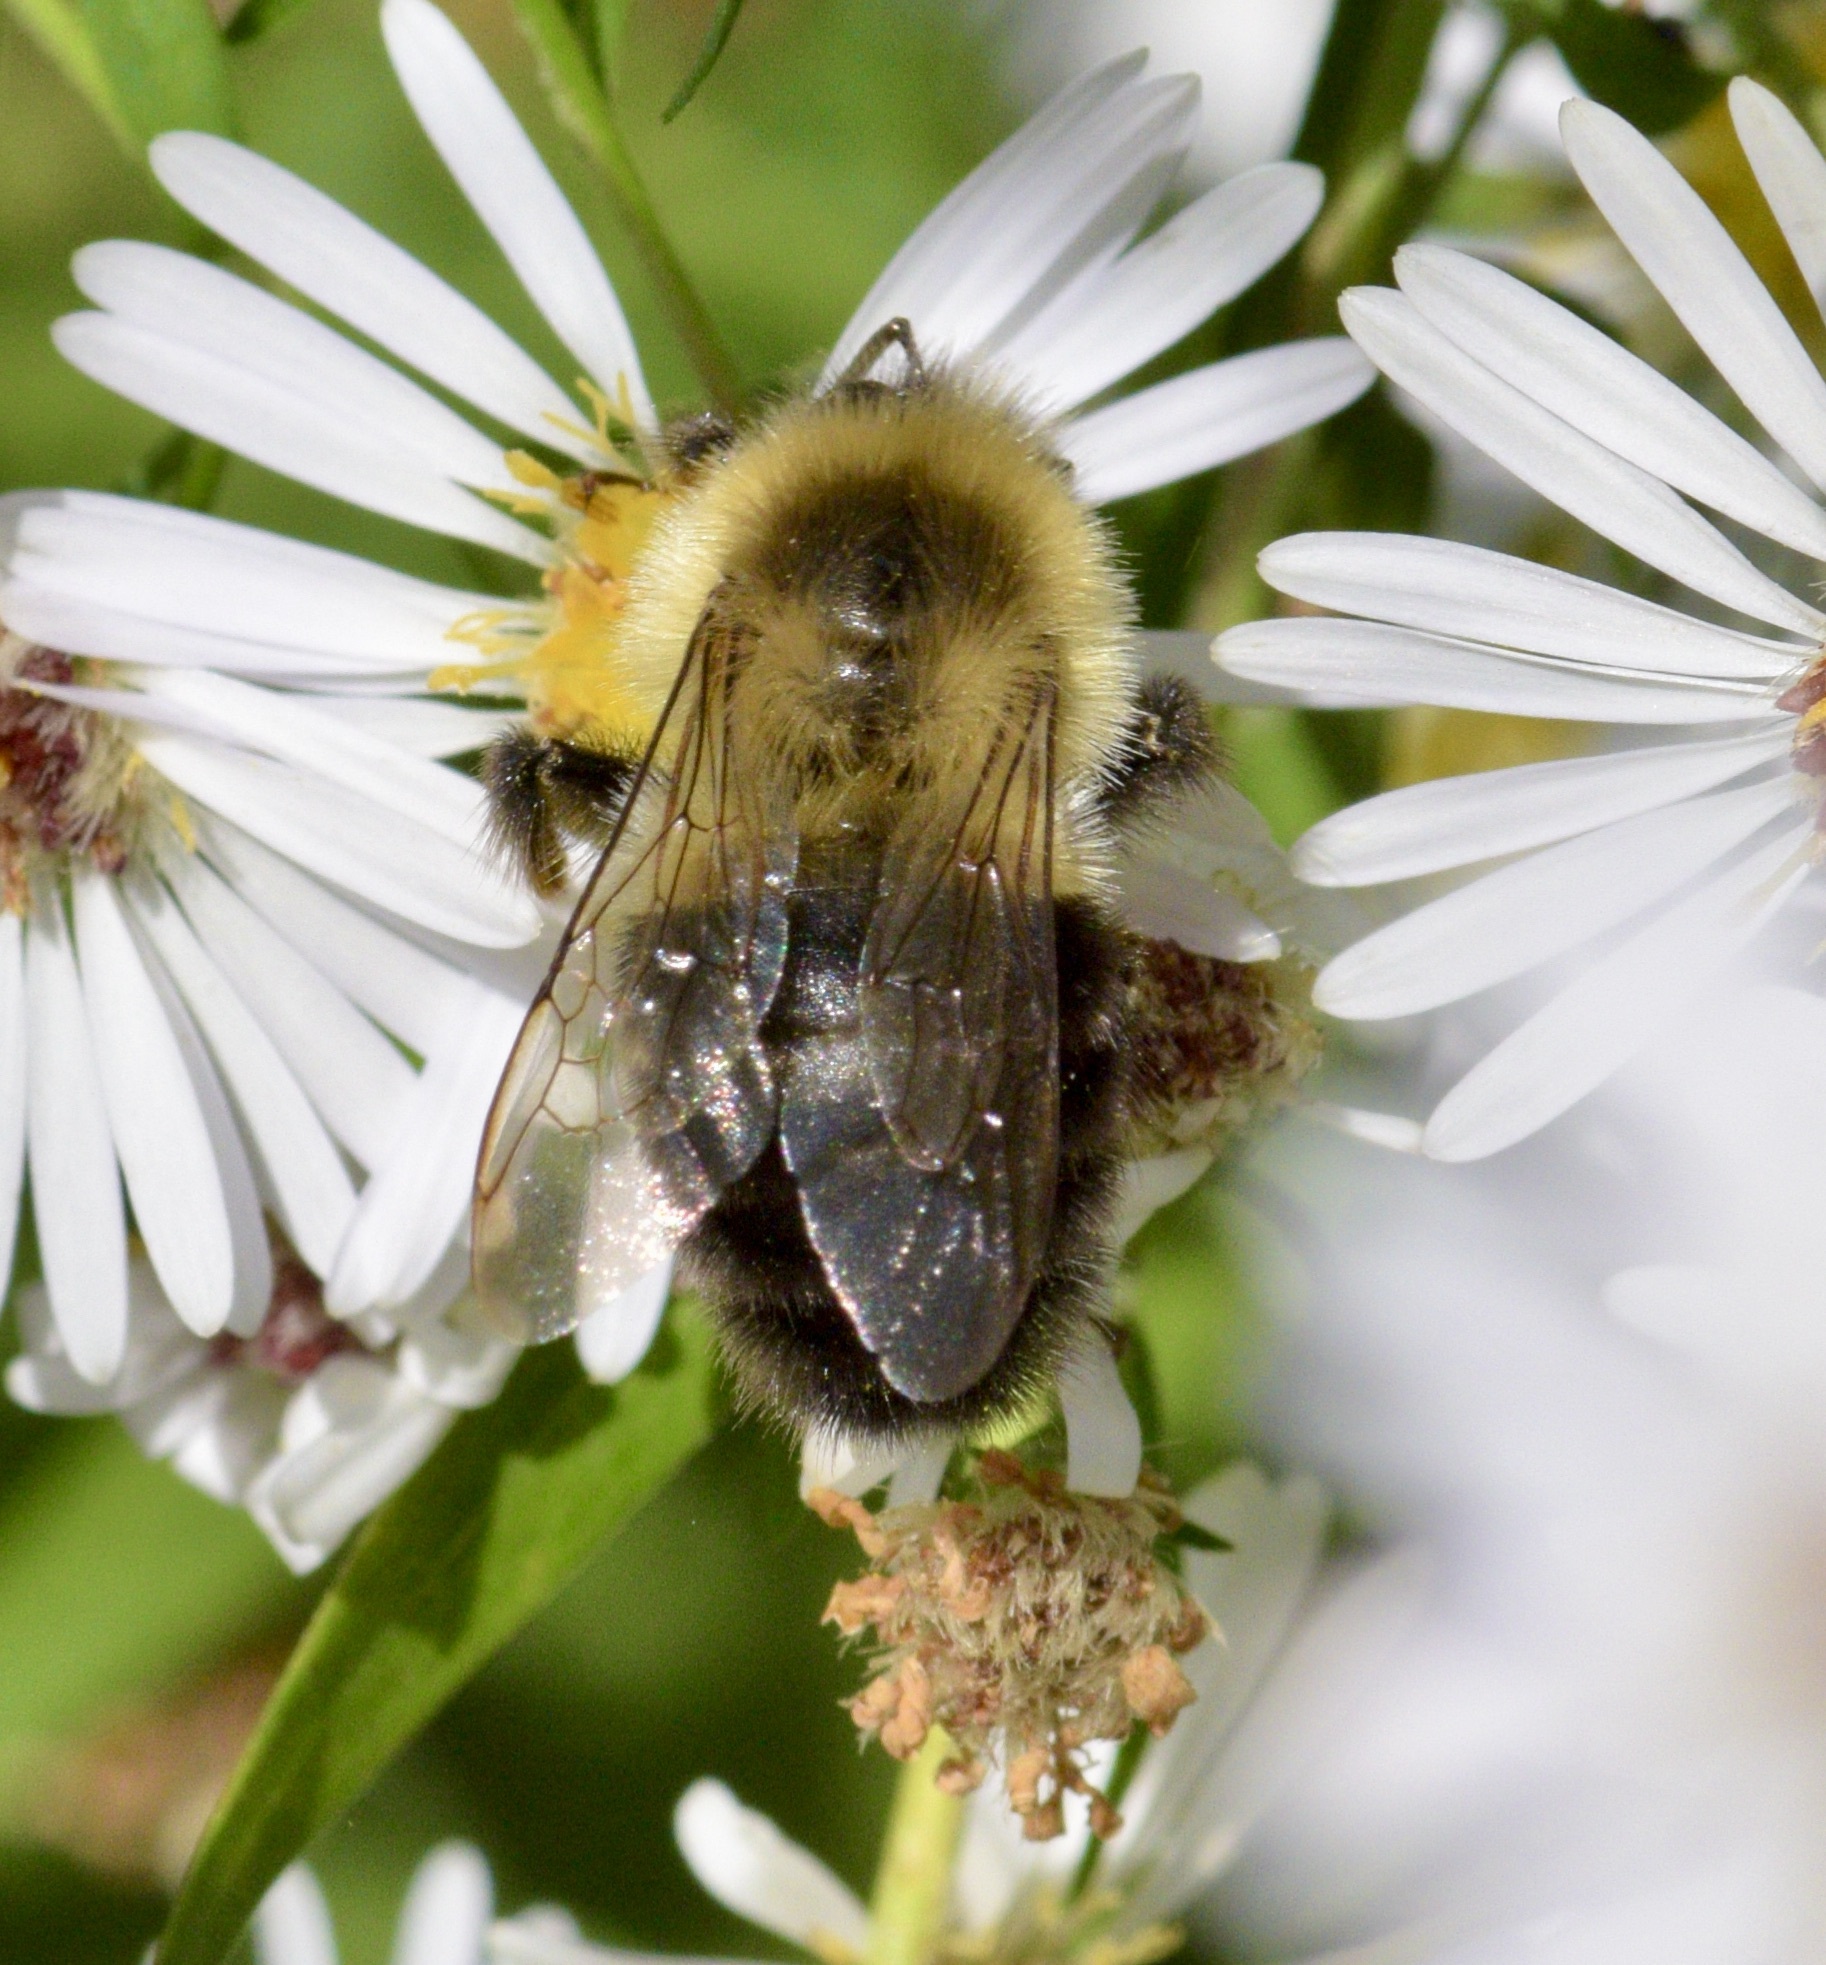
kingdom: Animalia
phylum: Arthropoda
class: Insecta
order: Hymenoptera
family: Apidae
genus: Bombus
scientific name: Bombus impatiens
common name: Common eastern bumble bee
